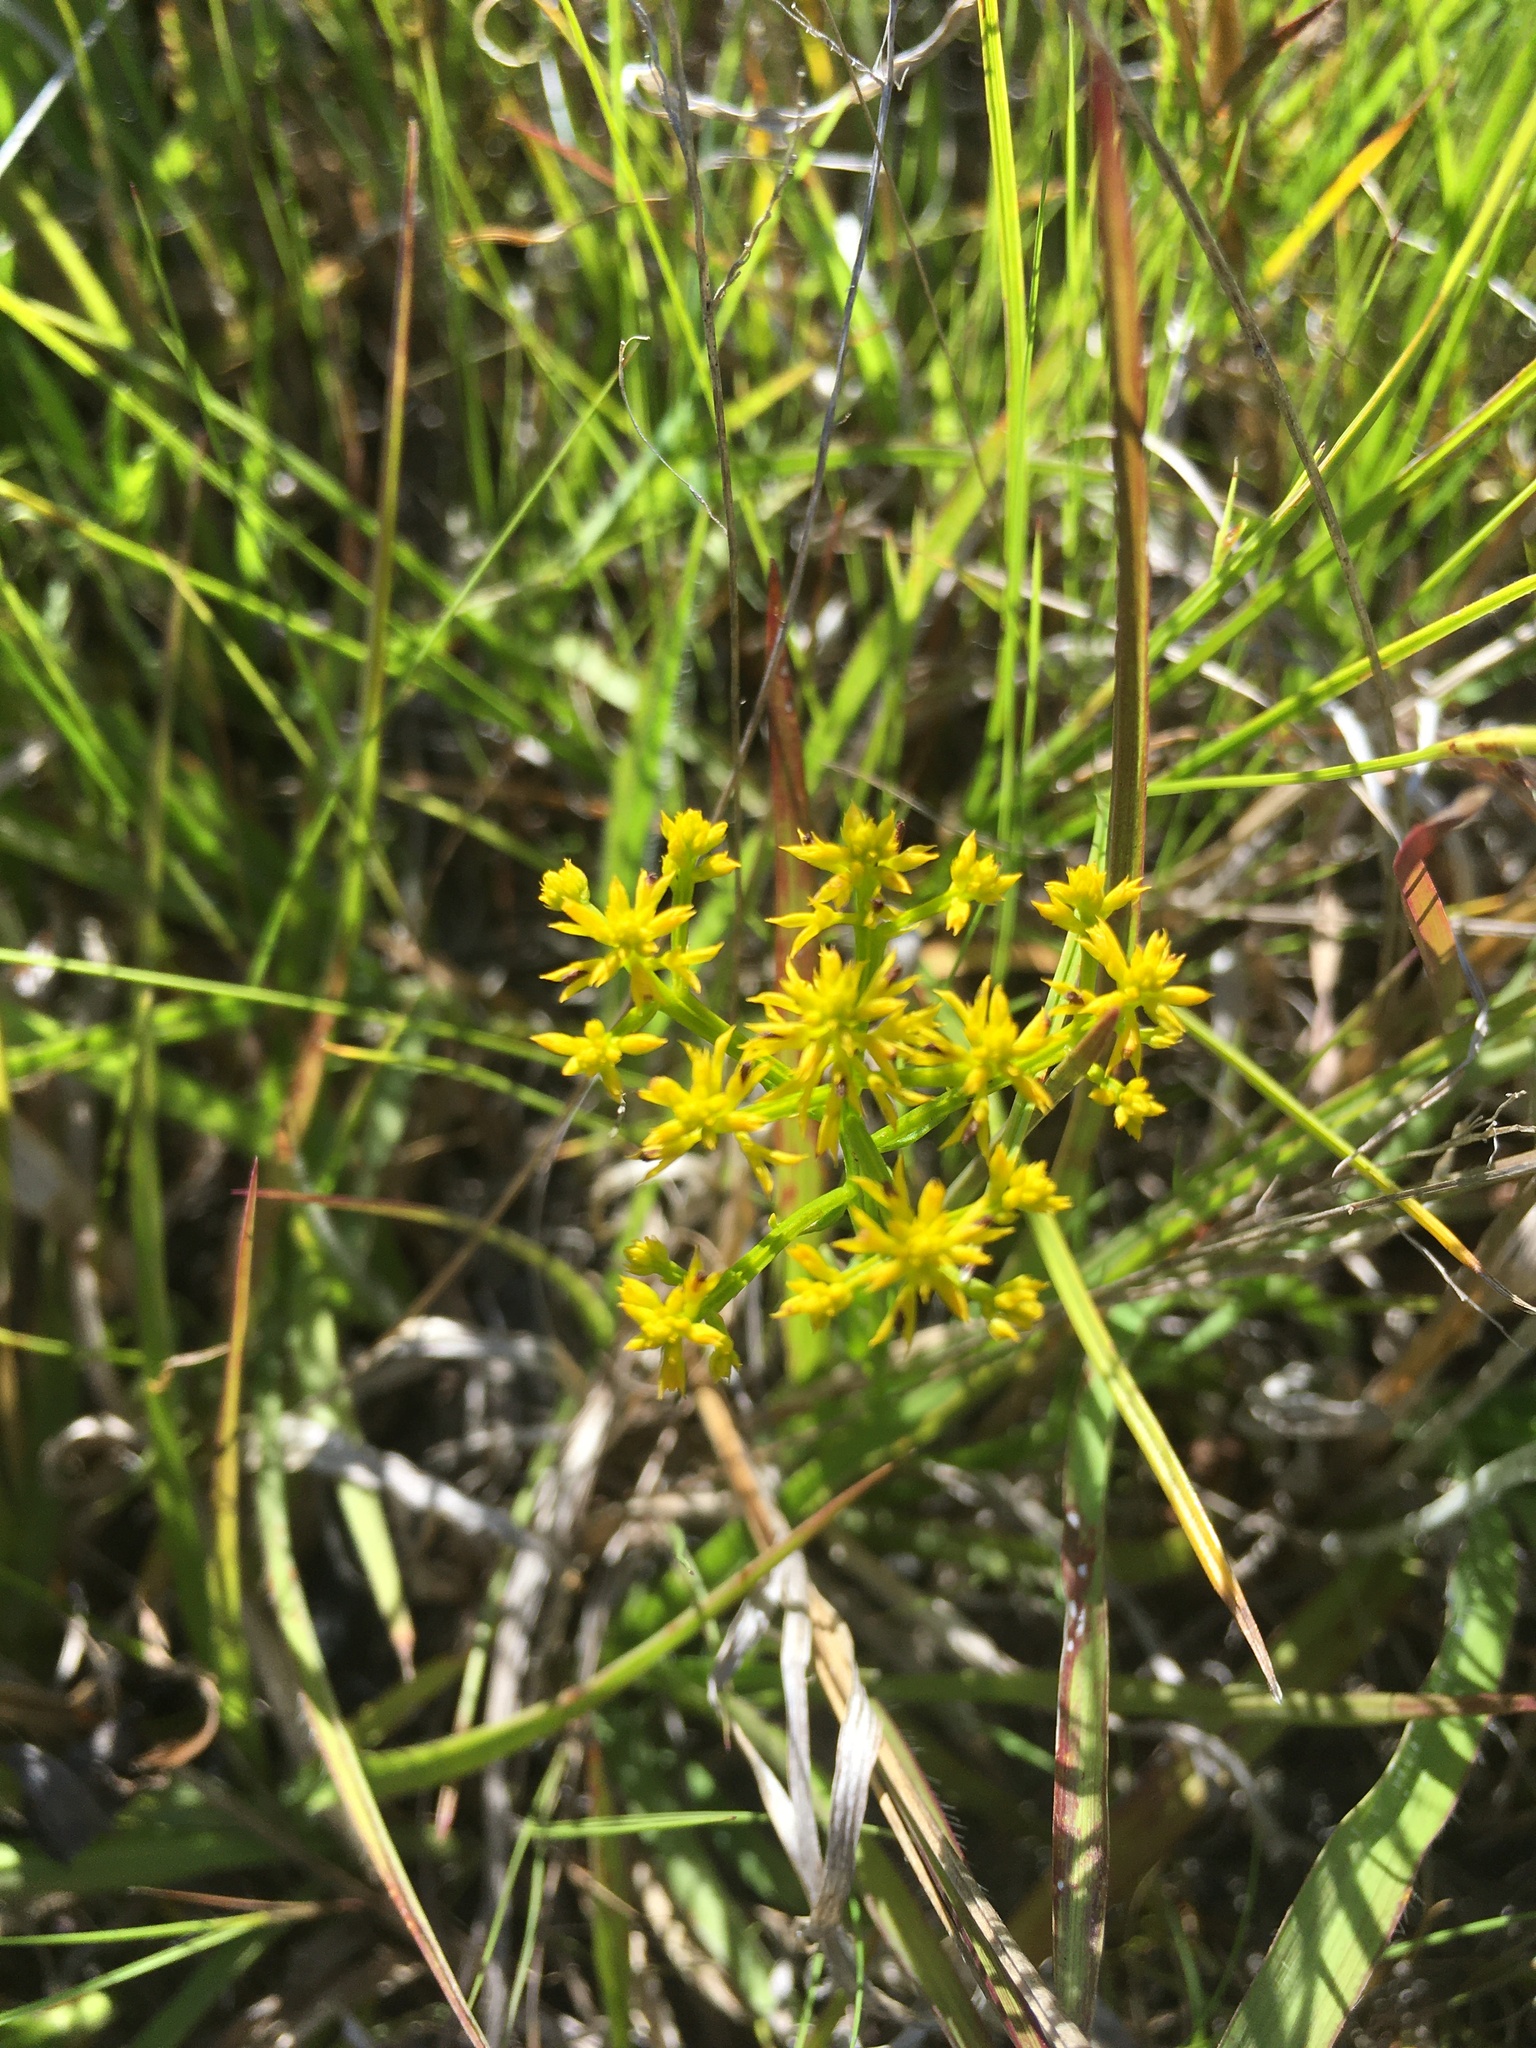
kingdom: Plantae
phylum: Tracheophyta
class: Magnoliopsida
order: Fabales
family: Polygalaceae
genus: Polygala
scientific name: Polygala ramosa
